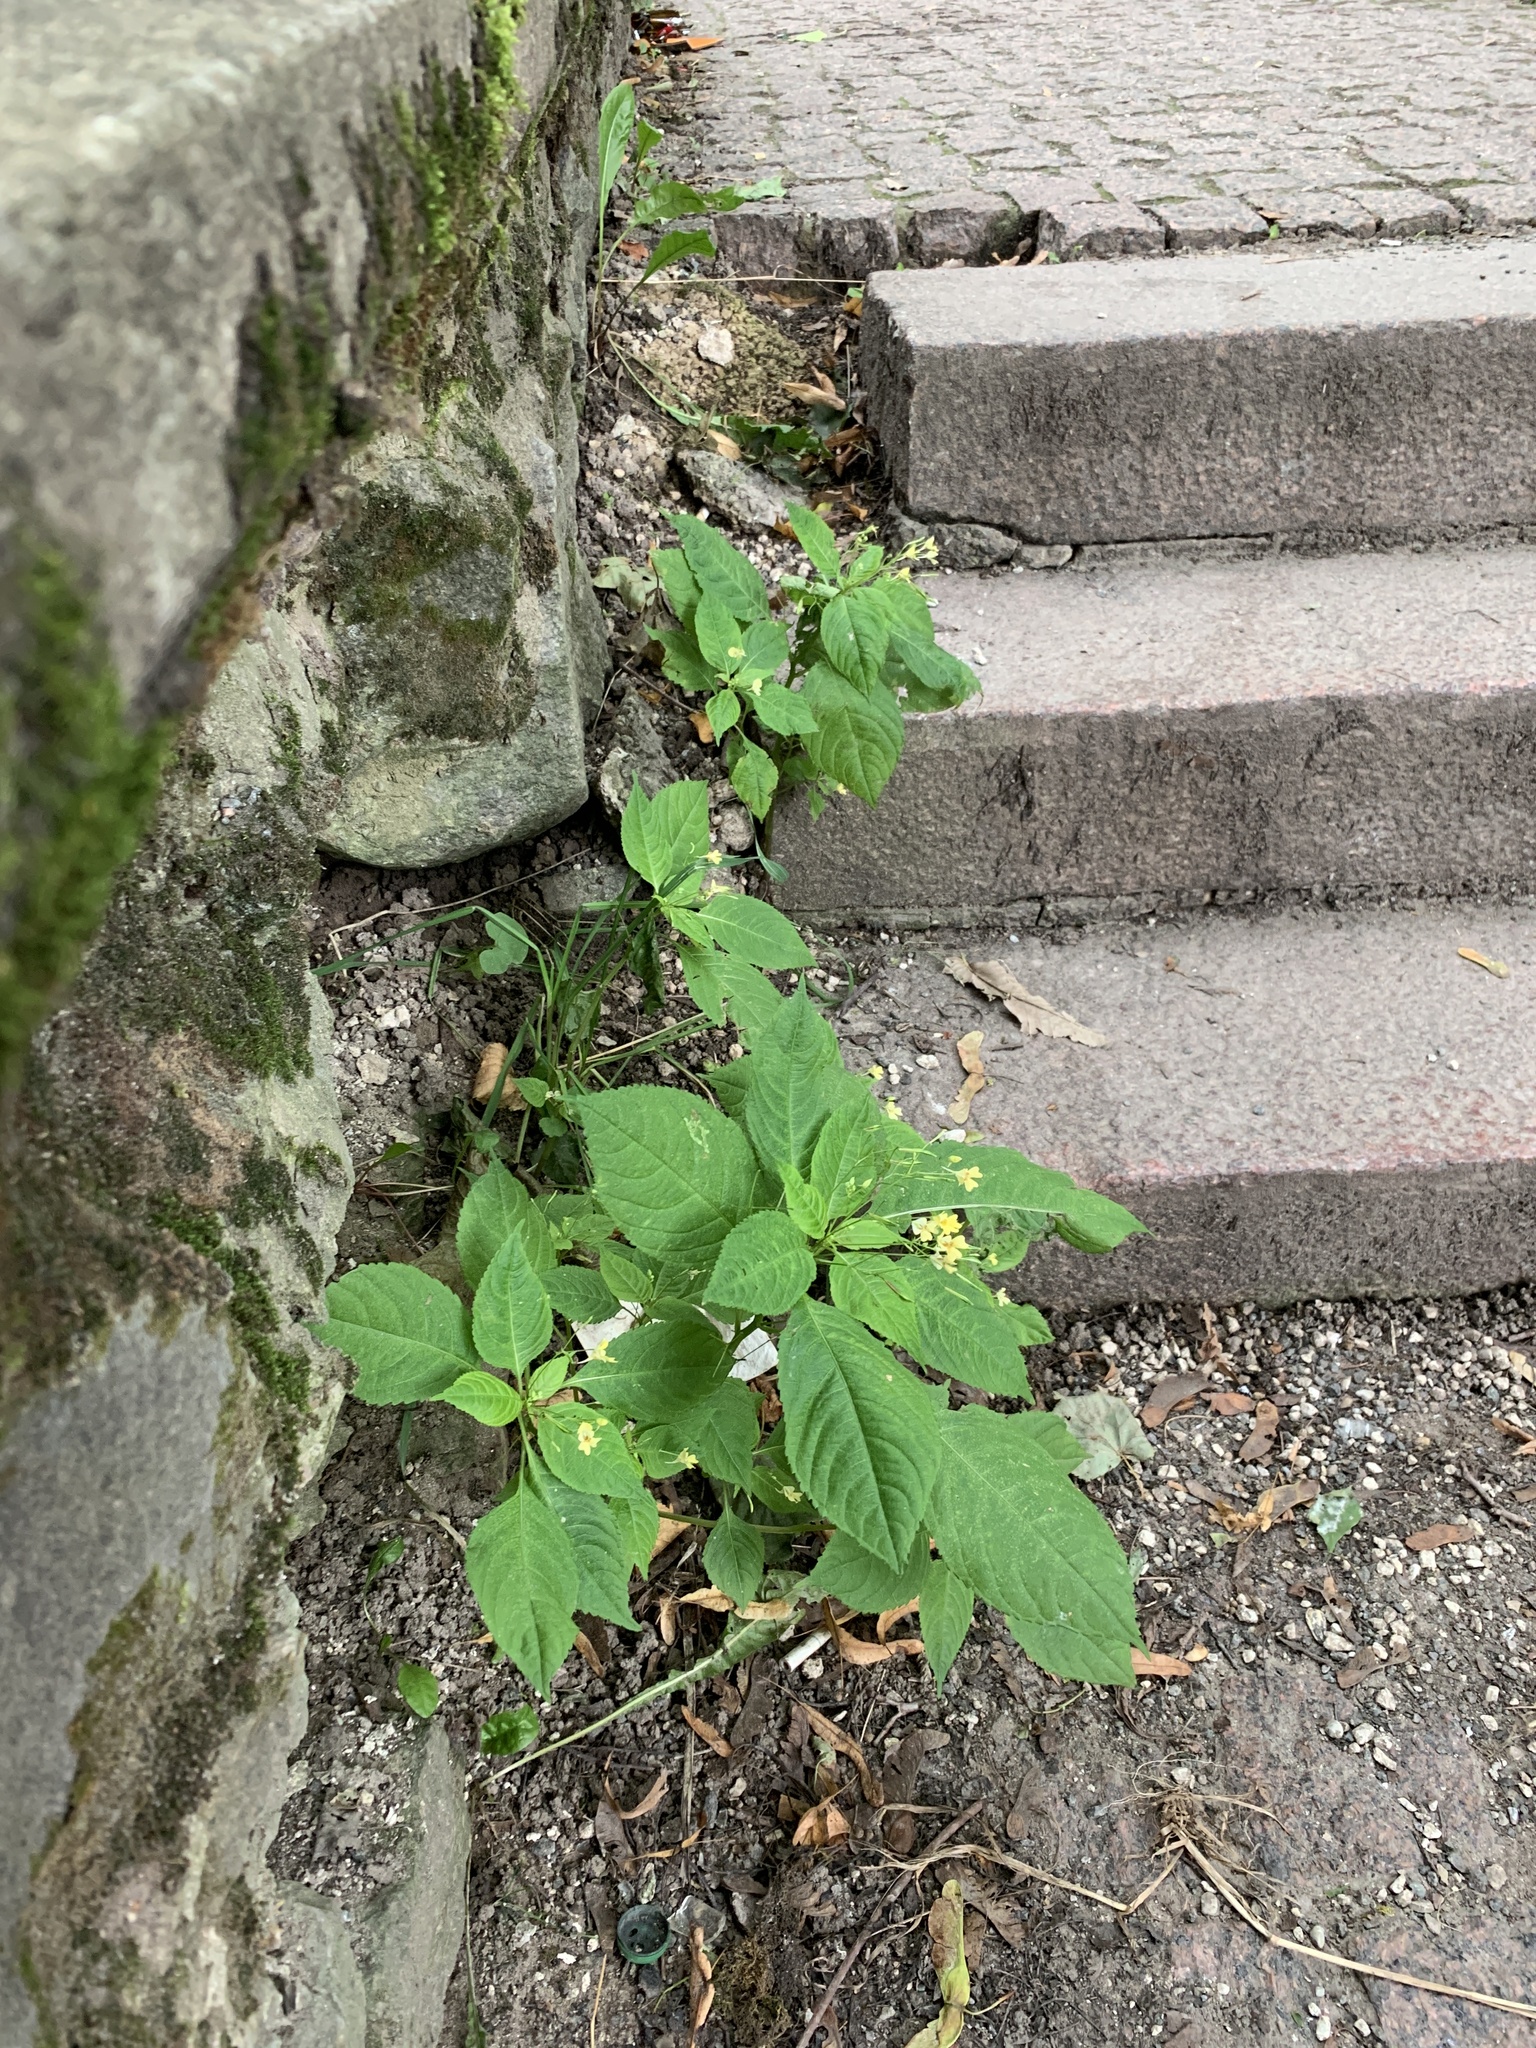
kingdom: Plantae
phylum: Tracheophyta
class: Magnoliopsida
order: Ericales
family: Balsaminaceae
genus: Impatiens
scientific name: Impatiens parviflora
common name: Small balsam
